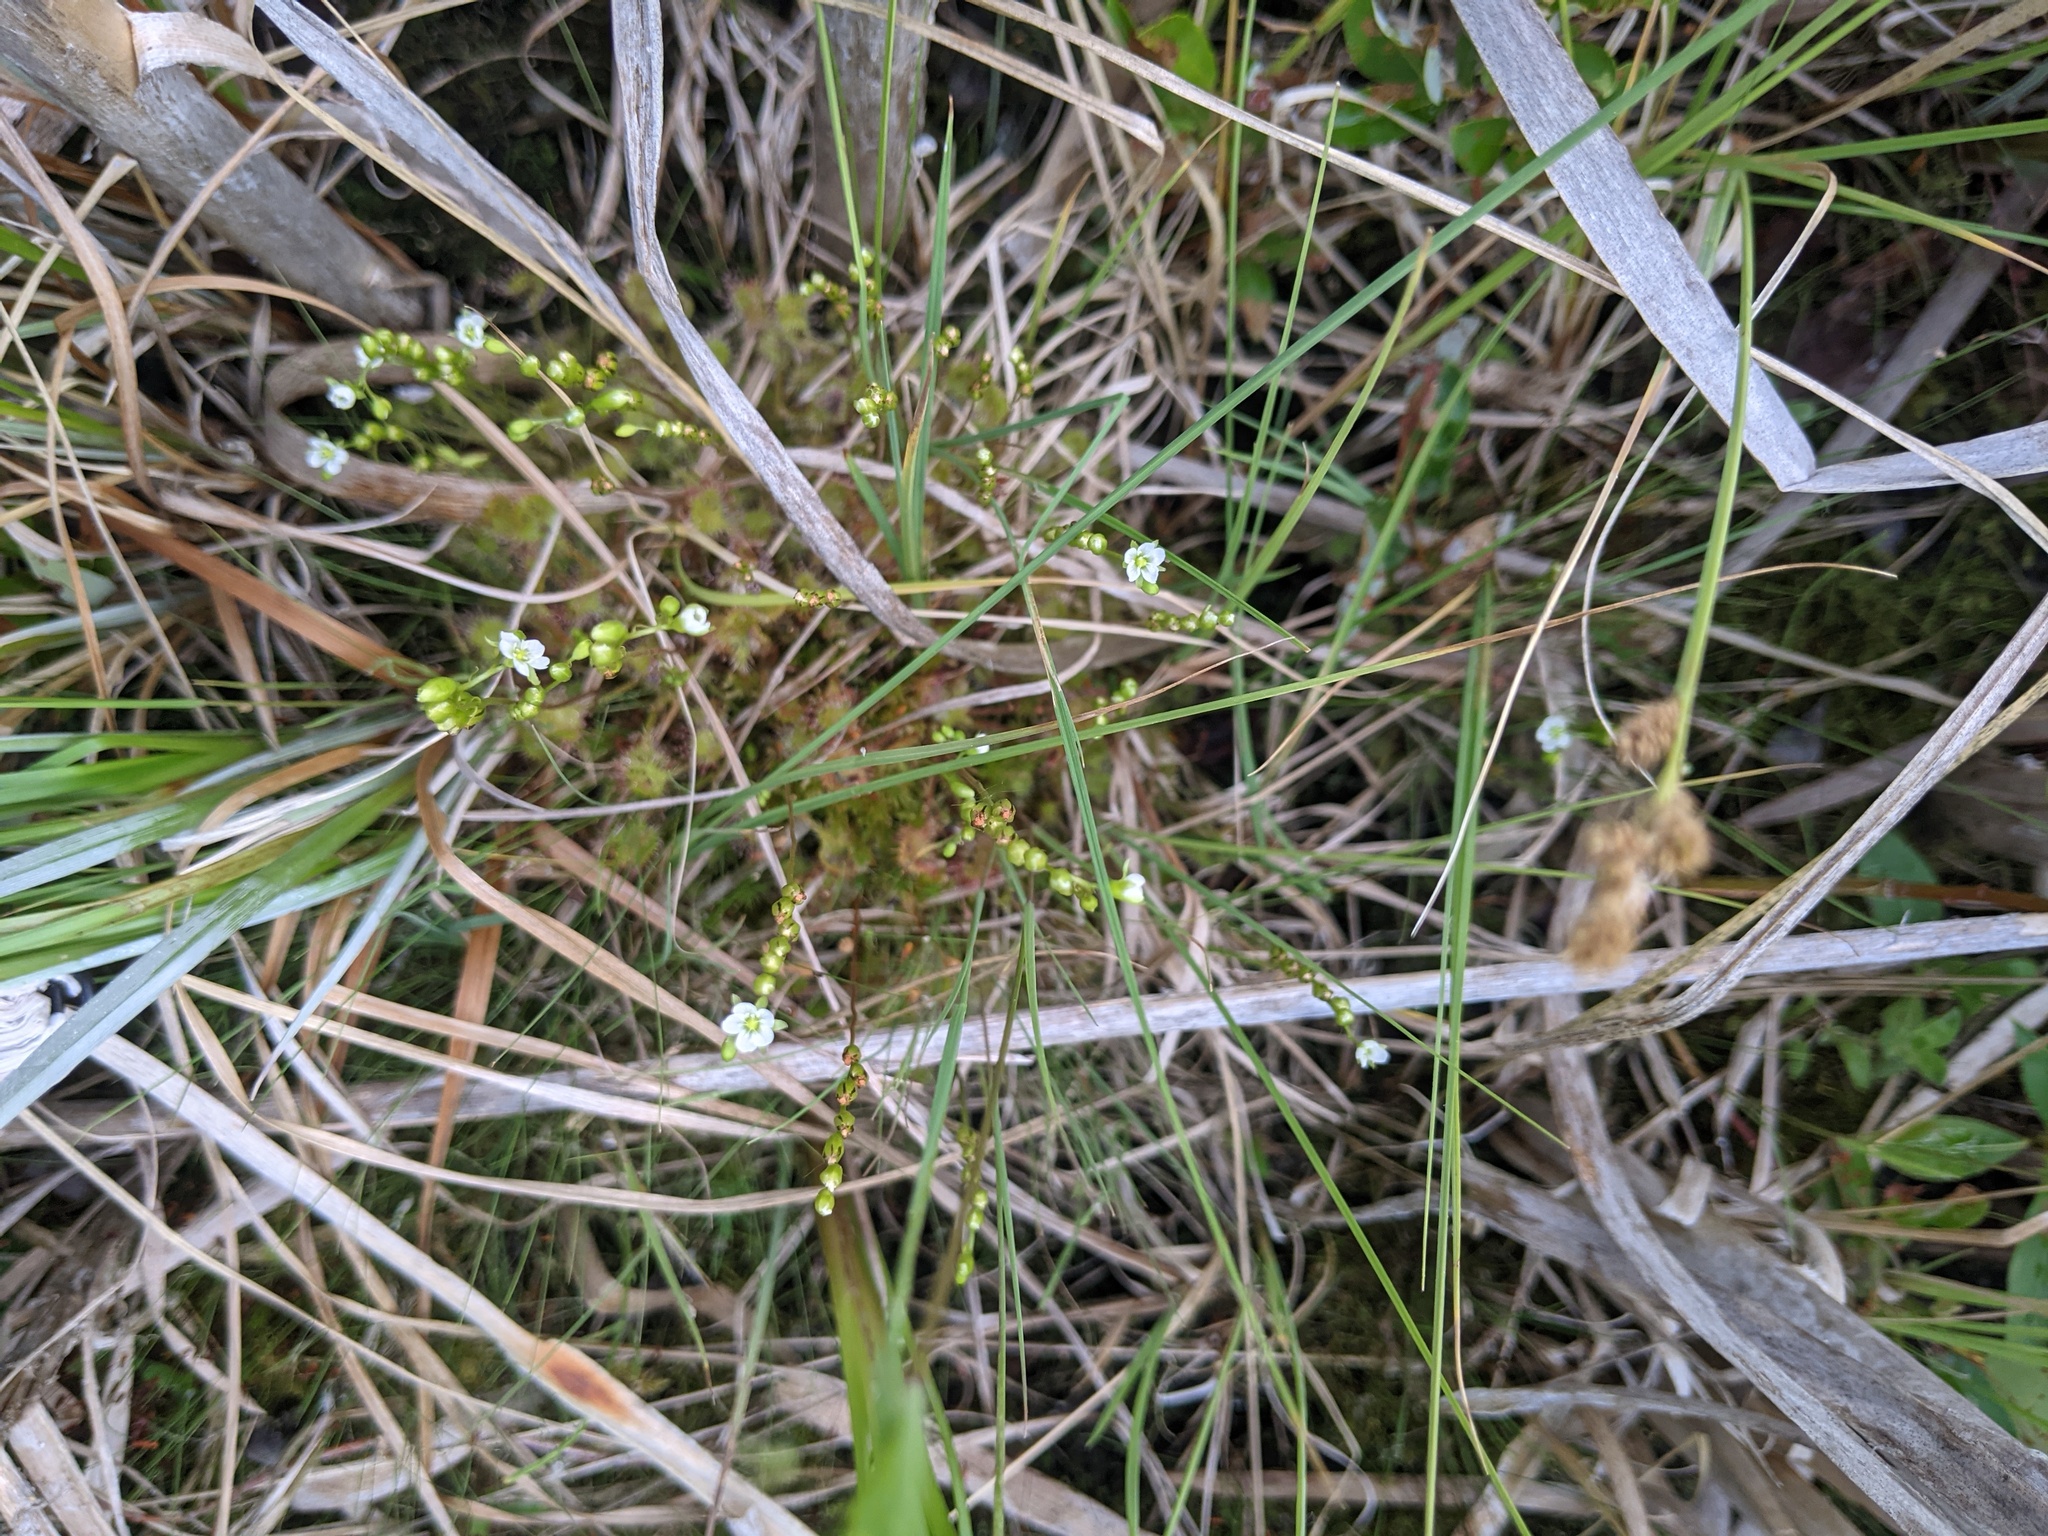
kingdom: Plantae
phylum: Tracheophyta
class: Magnoliopsida
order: Caryophyllales
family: Droseraceae
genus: Drosera
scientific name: Drosera rotundifolia
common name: Round-leaved sundew
